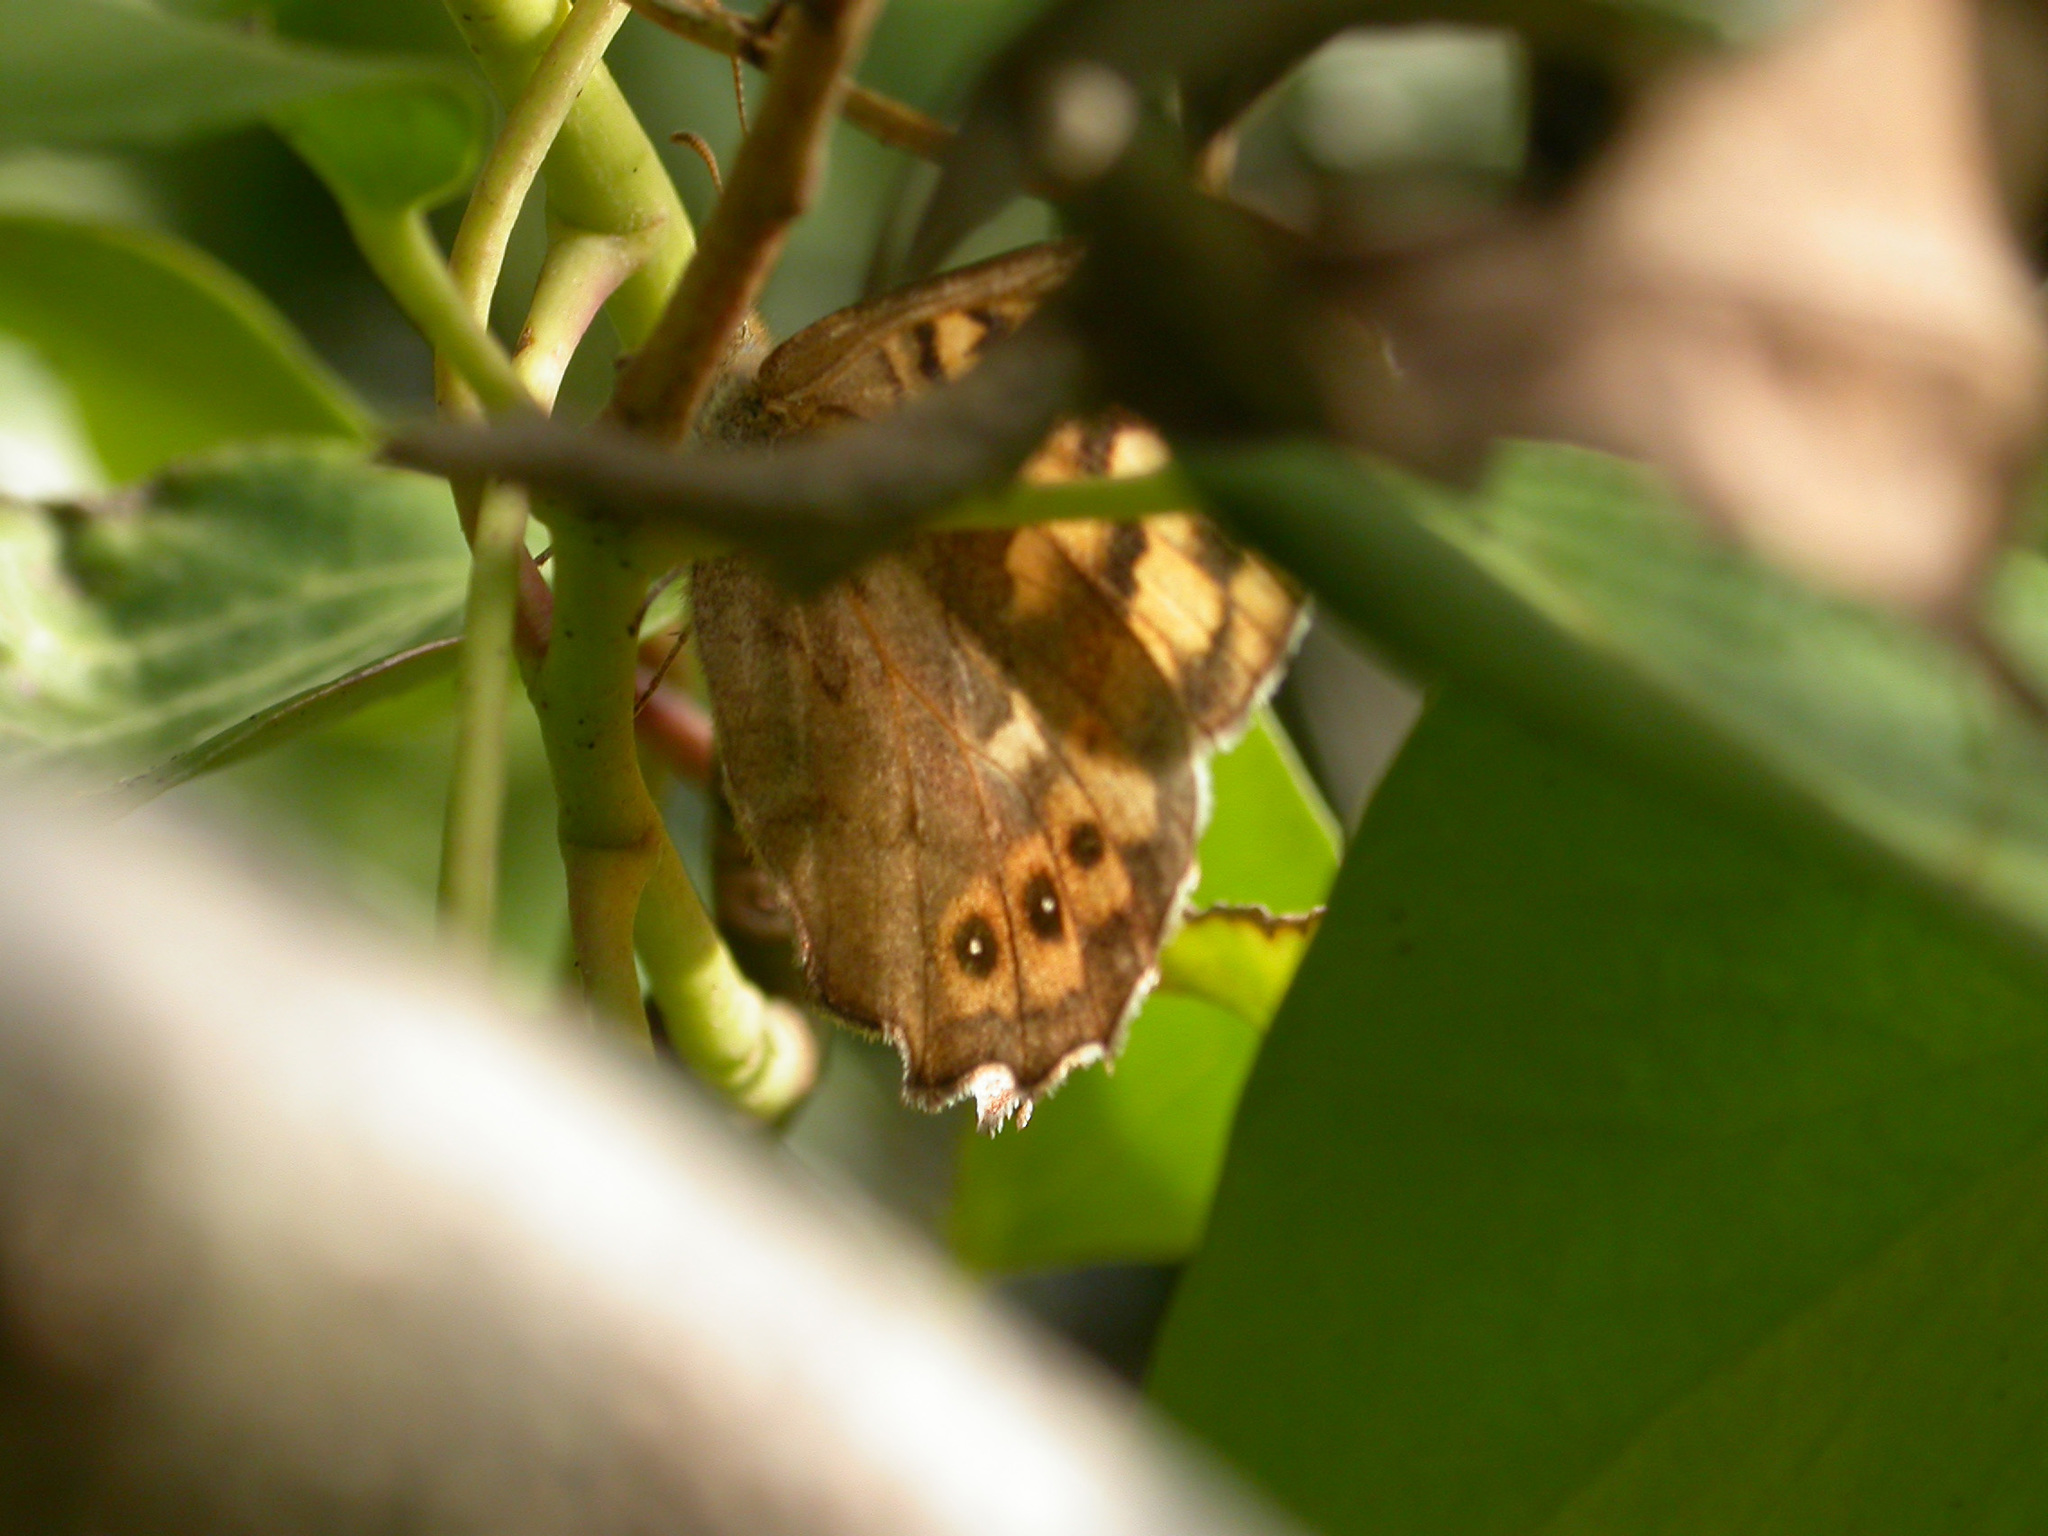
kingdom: Animalia
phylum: Arthropoda
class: Insecta
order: Lepidoptera
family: Nymphalidae
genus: Pararge
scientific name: Pararge aegeria
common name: Speckled wood
